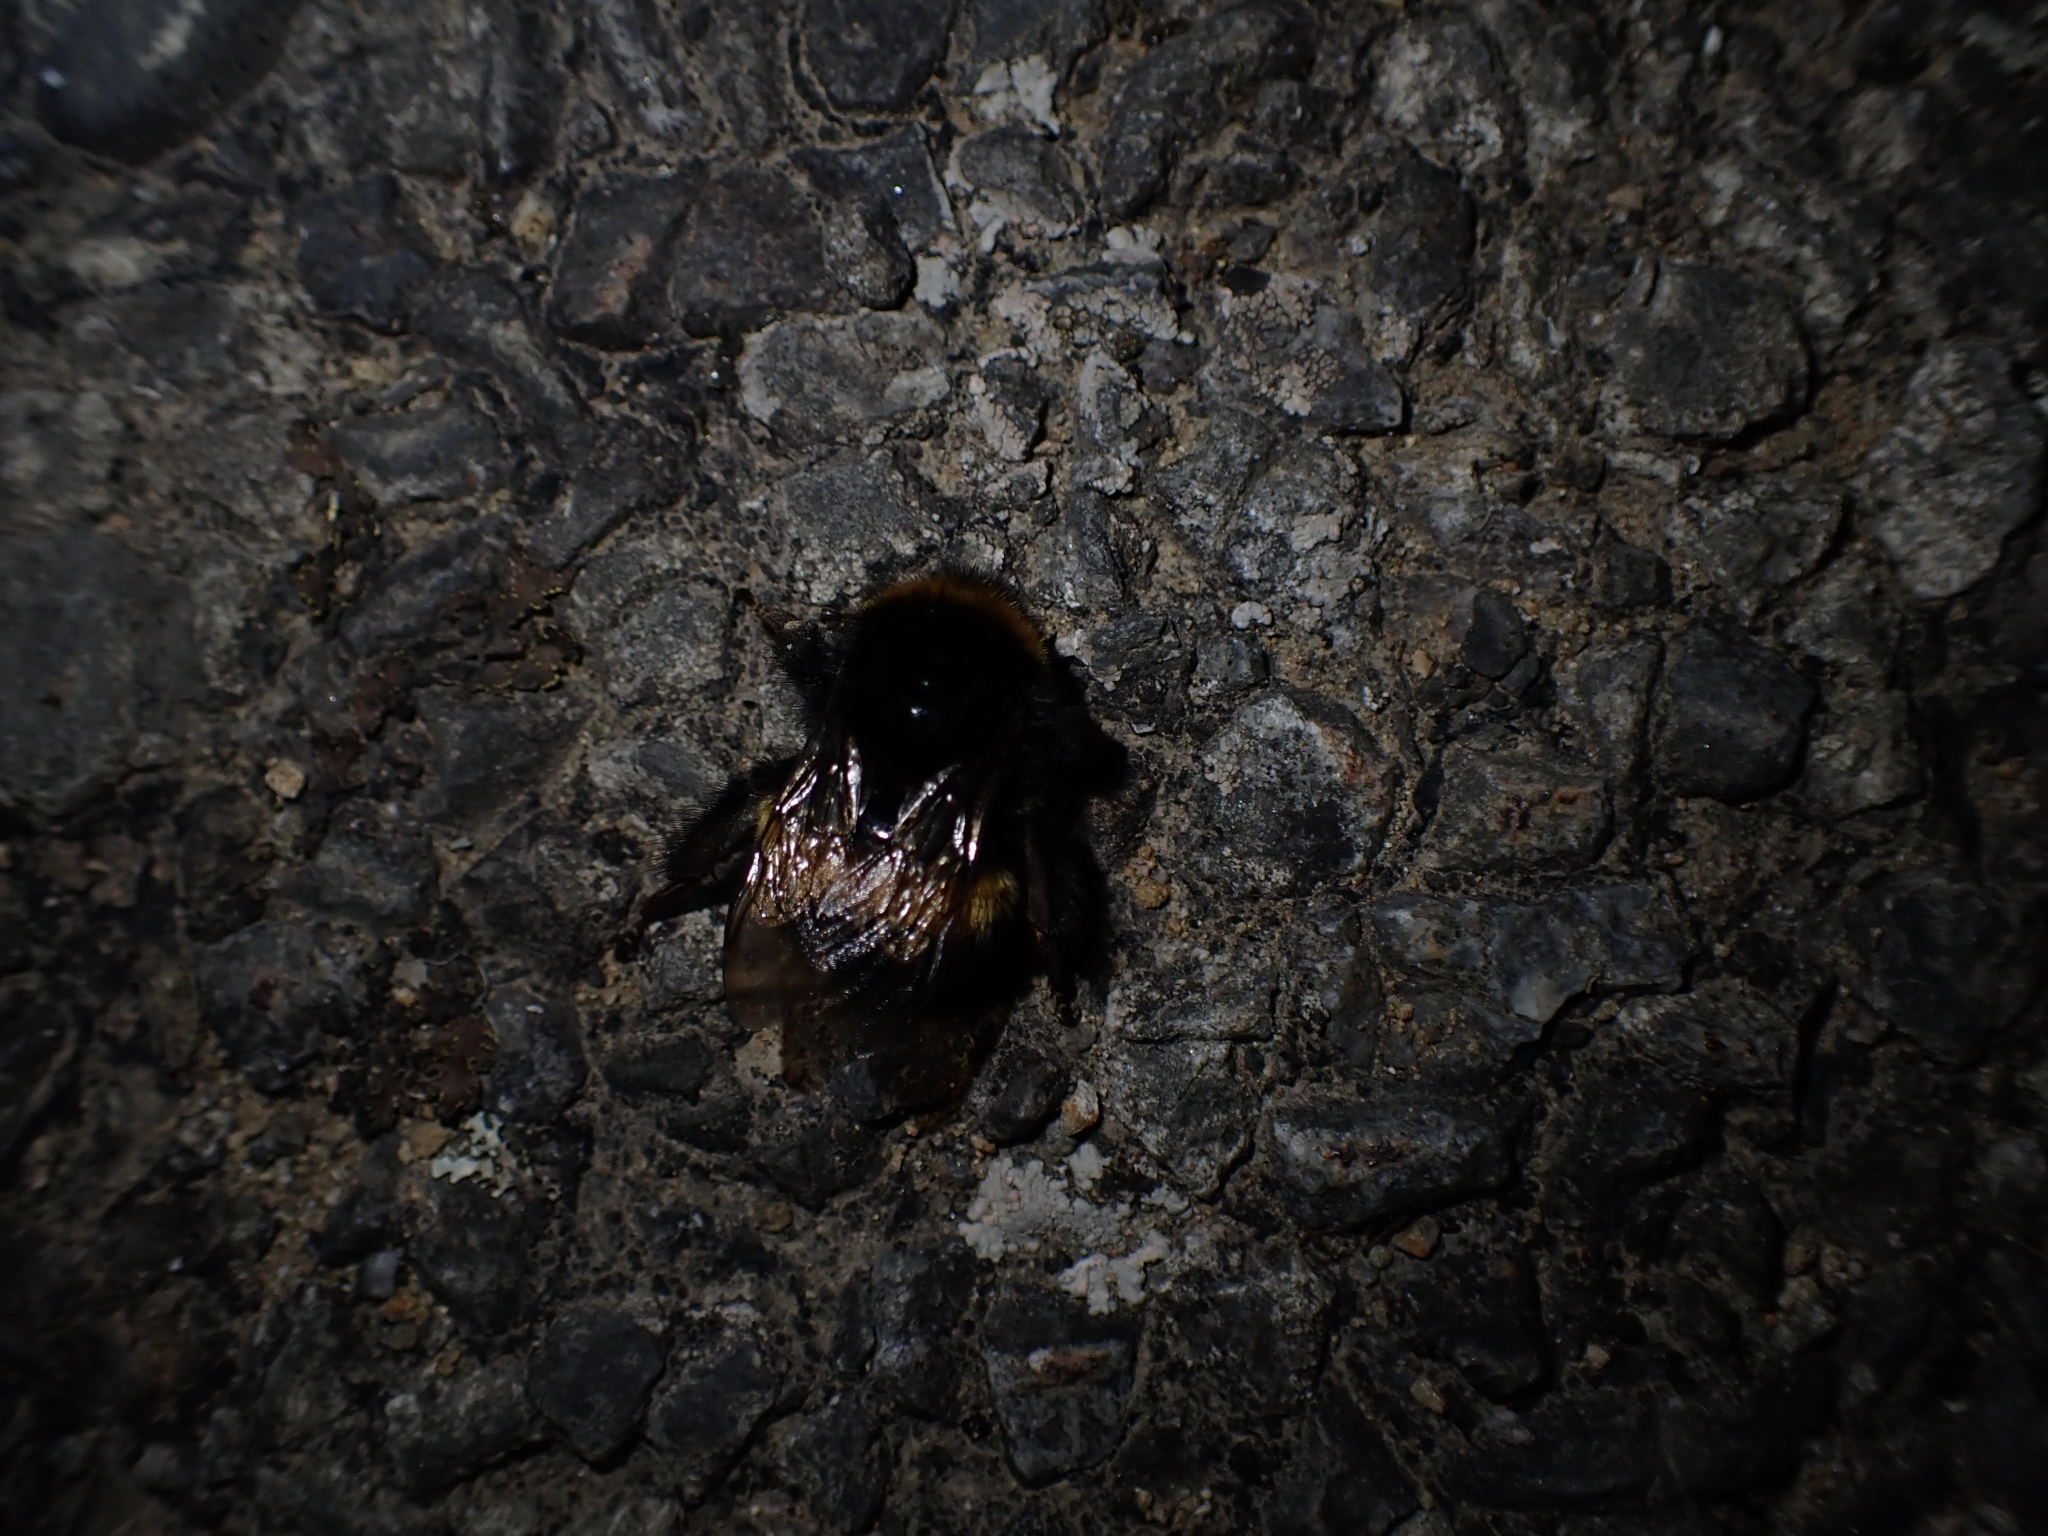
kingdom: Animalia
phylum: Arthropoda
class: Insecta
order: Hymenoptera
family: Apidae
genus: Bombus
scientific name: Bombus terrestris
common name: Buff-tailed bumblebee
